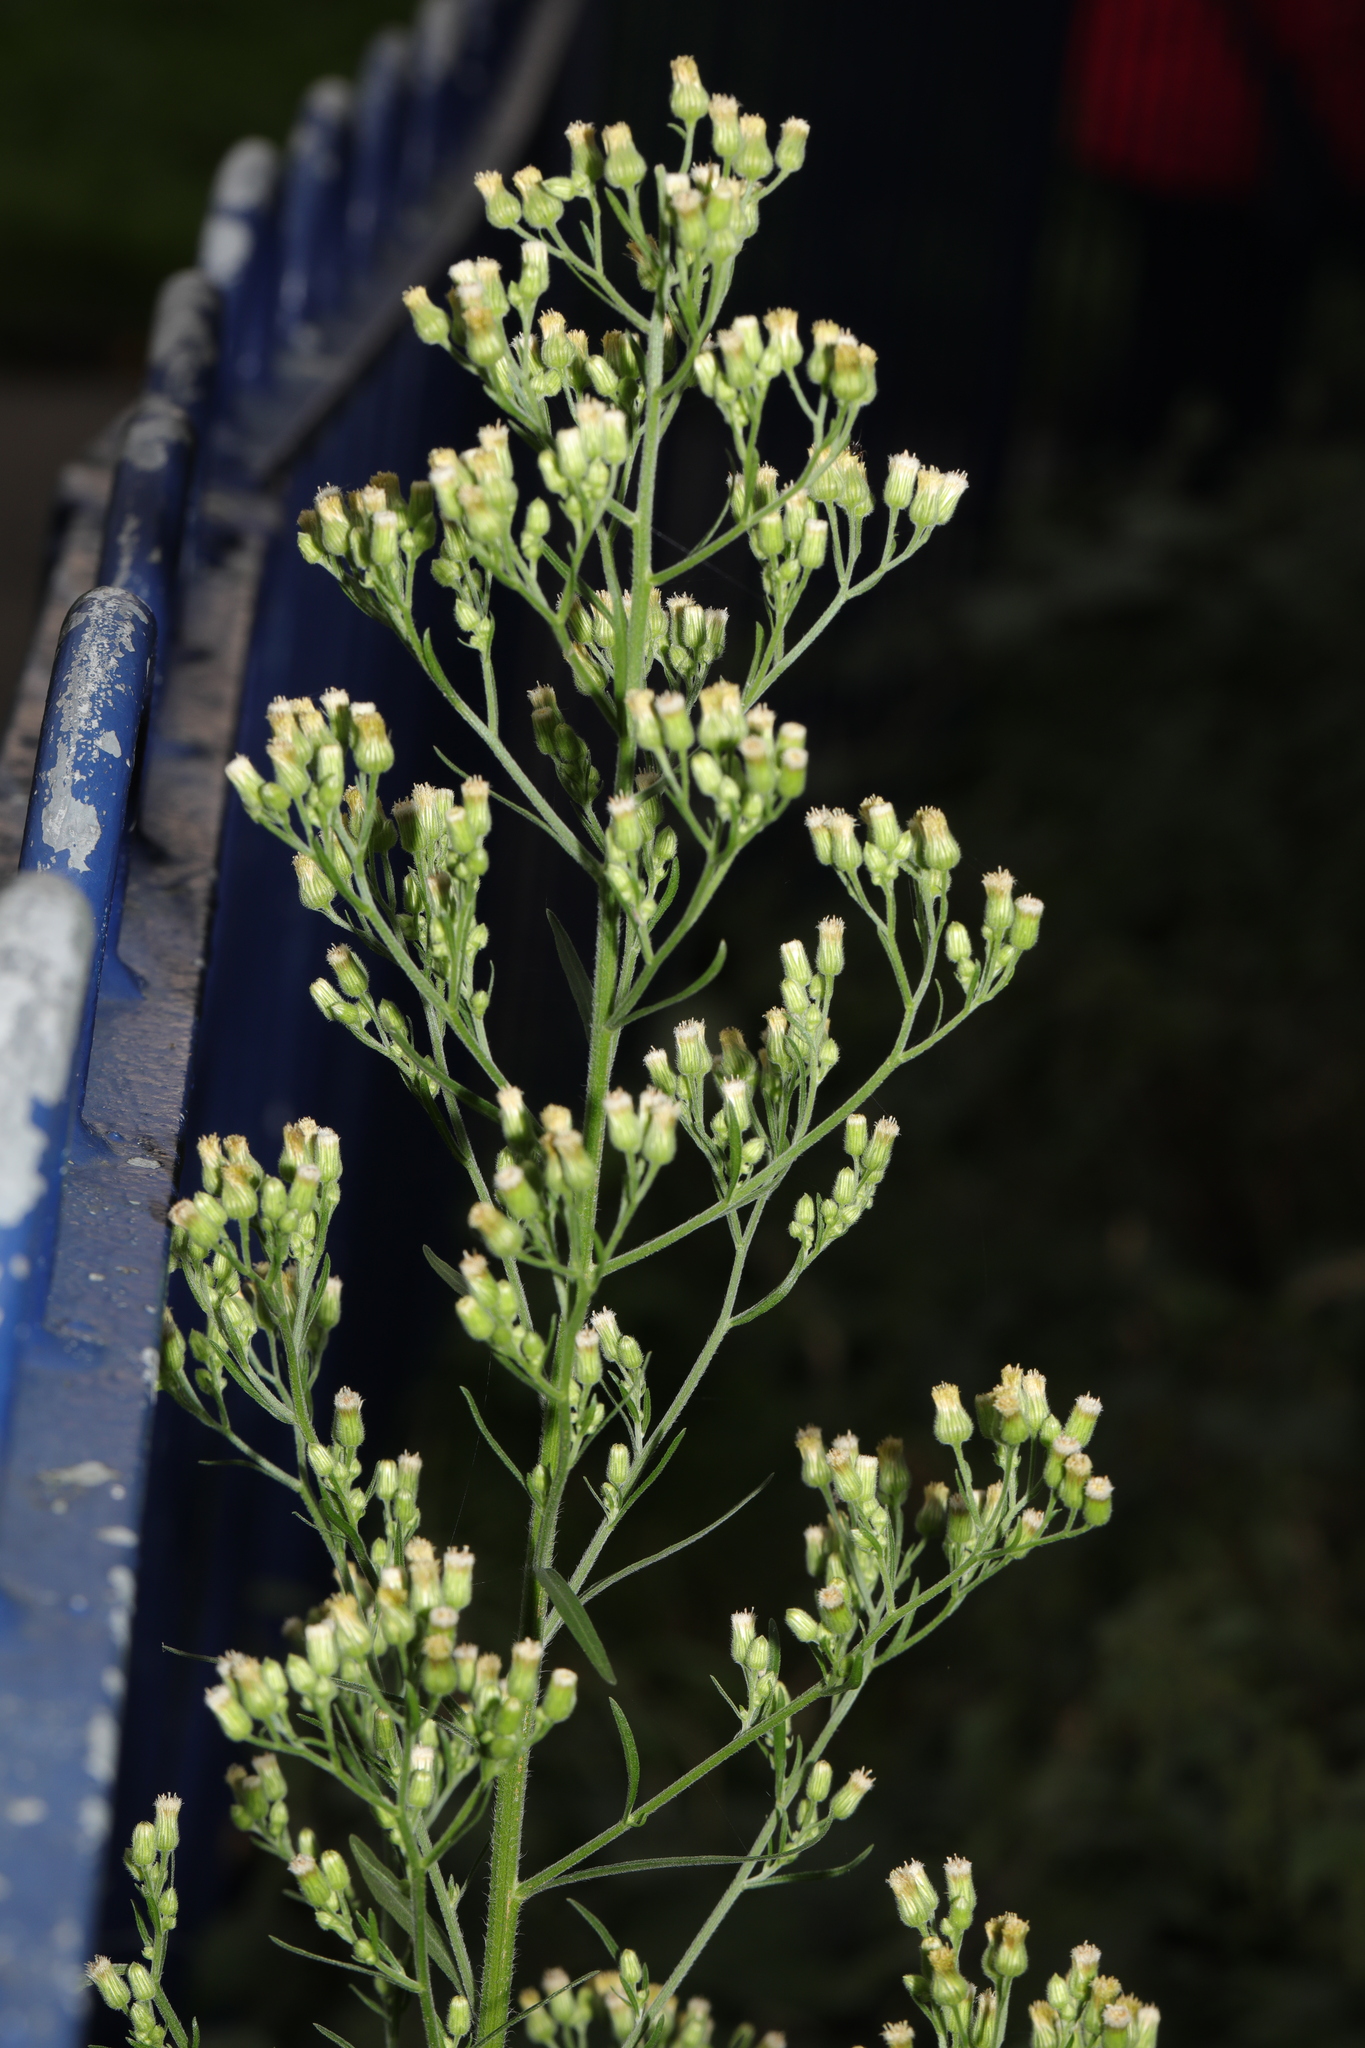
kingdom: Plantae
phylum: Tracheophyta
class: Magnoliopsida
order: Asterales
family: Asteraceae
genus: Erigeron
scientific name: Erigeron canadensis
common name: Canadian fleabane
